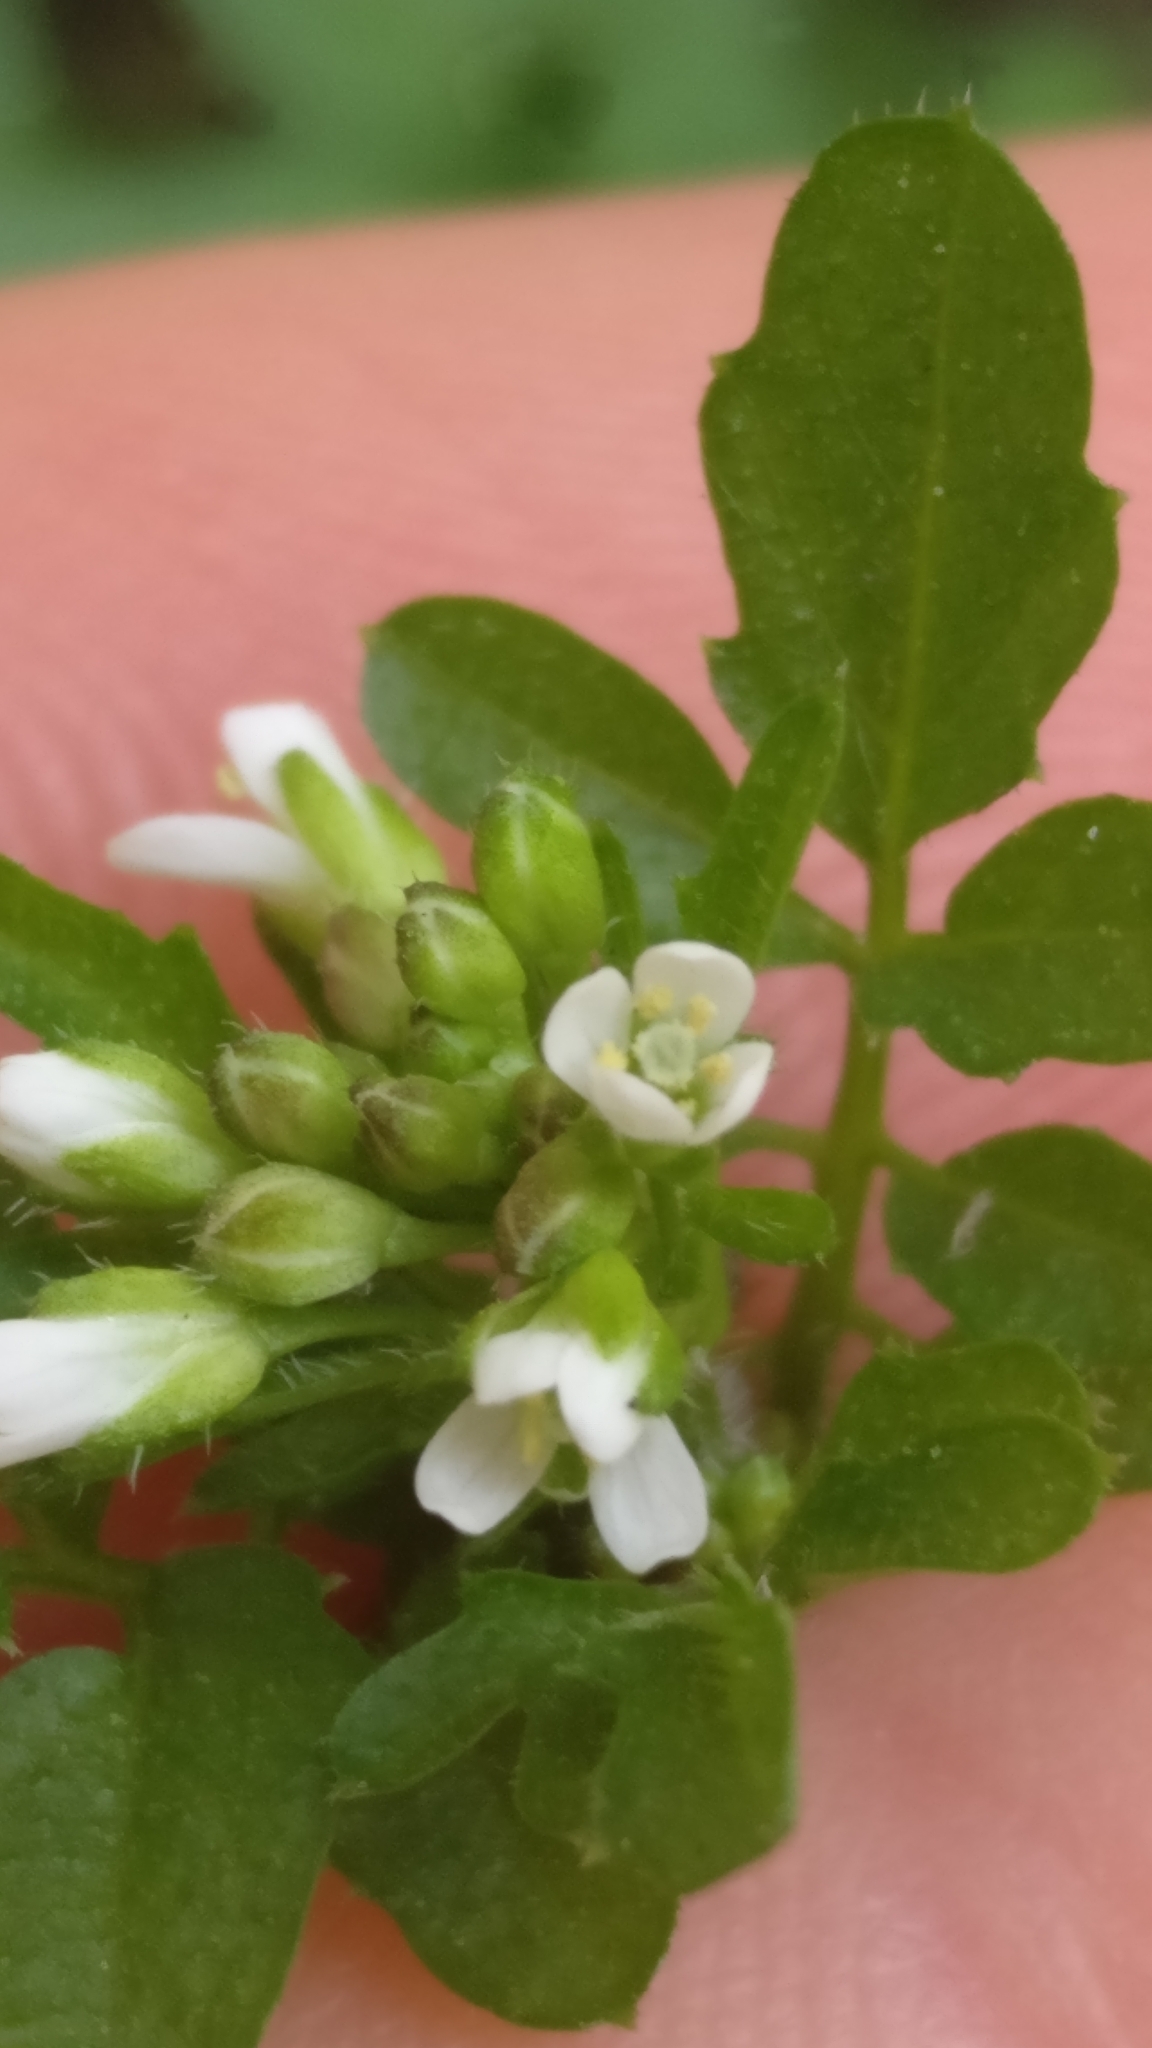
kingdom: Plantae
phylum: Tracheophyta
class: Magnoliopsida
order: Brassicales
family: Brassicaceae
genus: Cardamine
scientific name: Cardamine hirsuta
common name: Hairy bittercress
